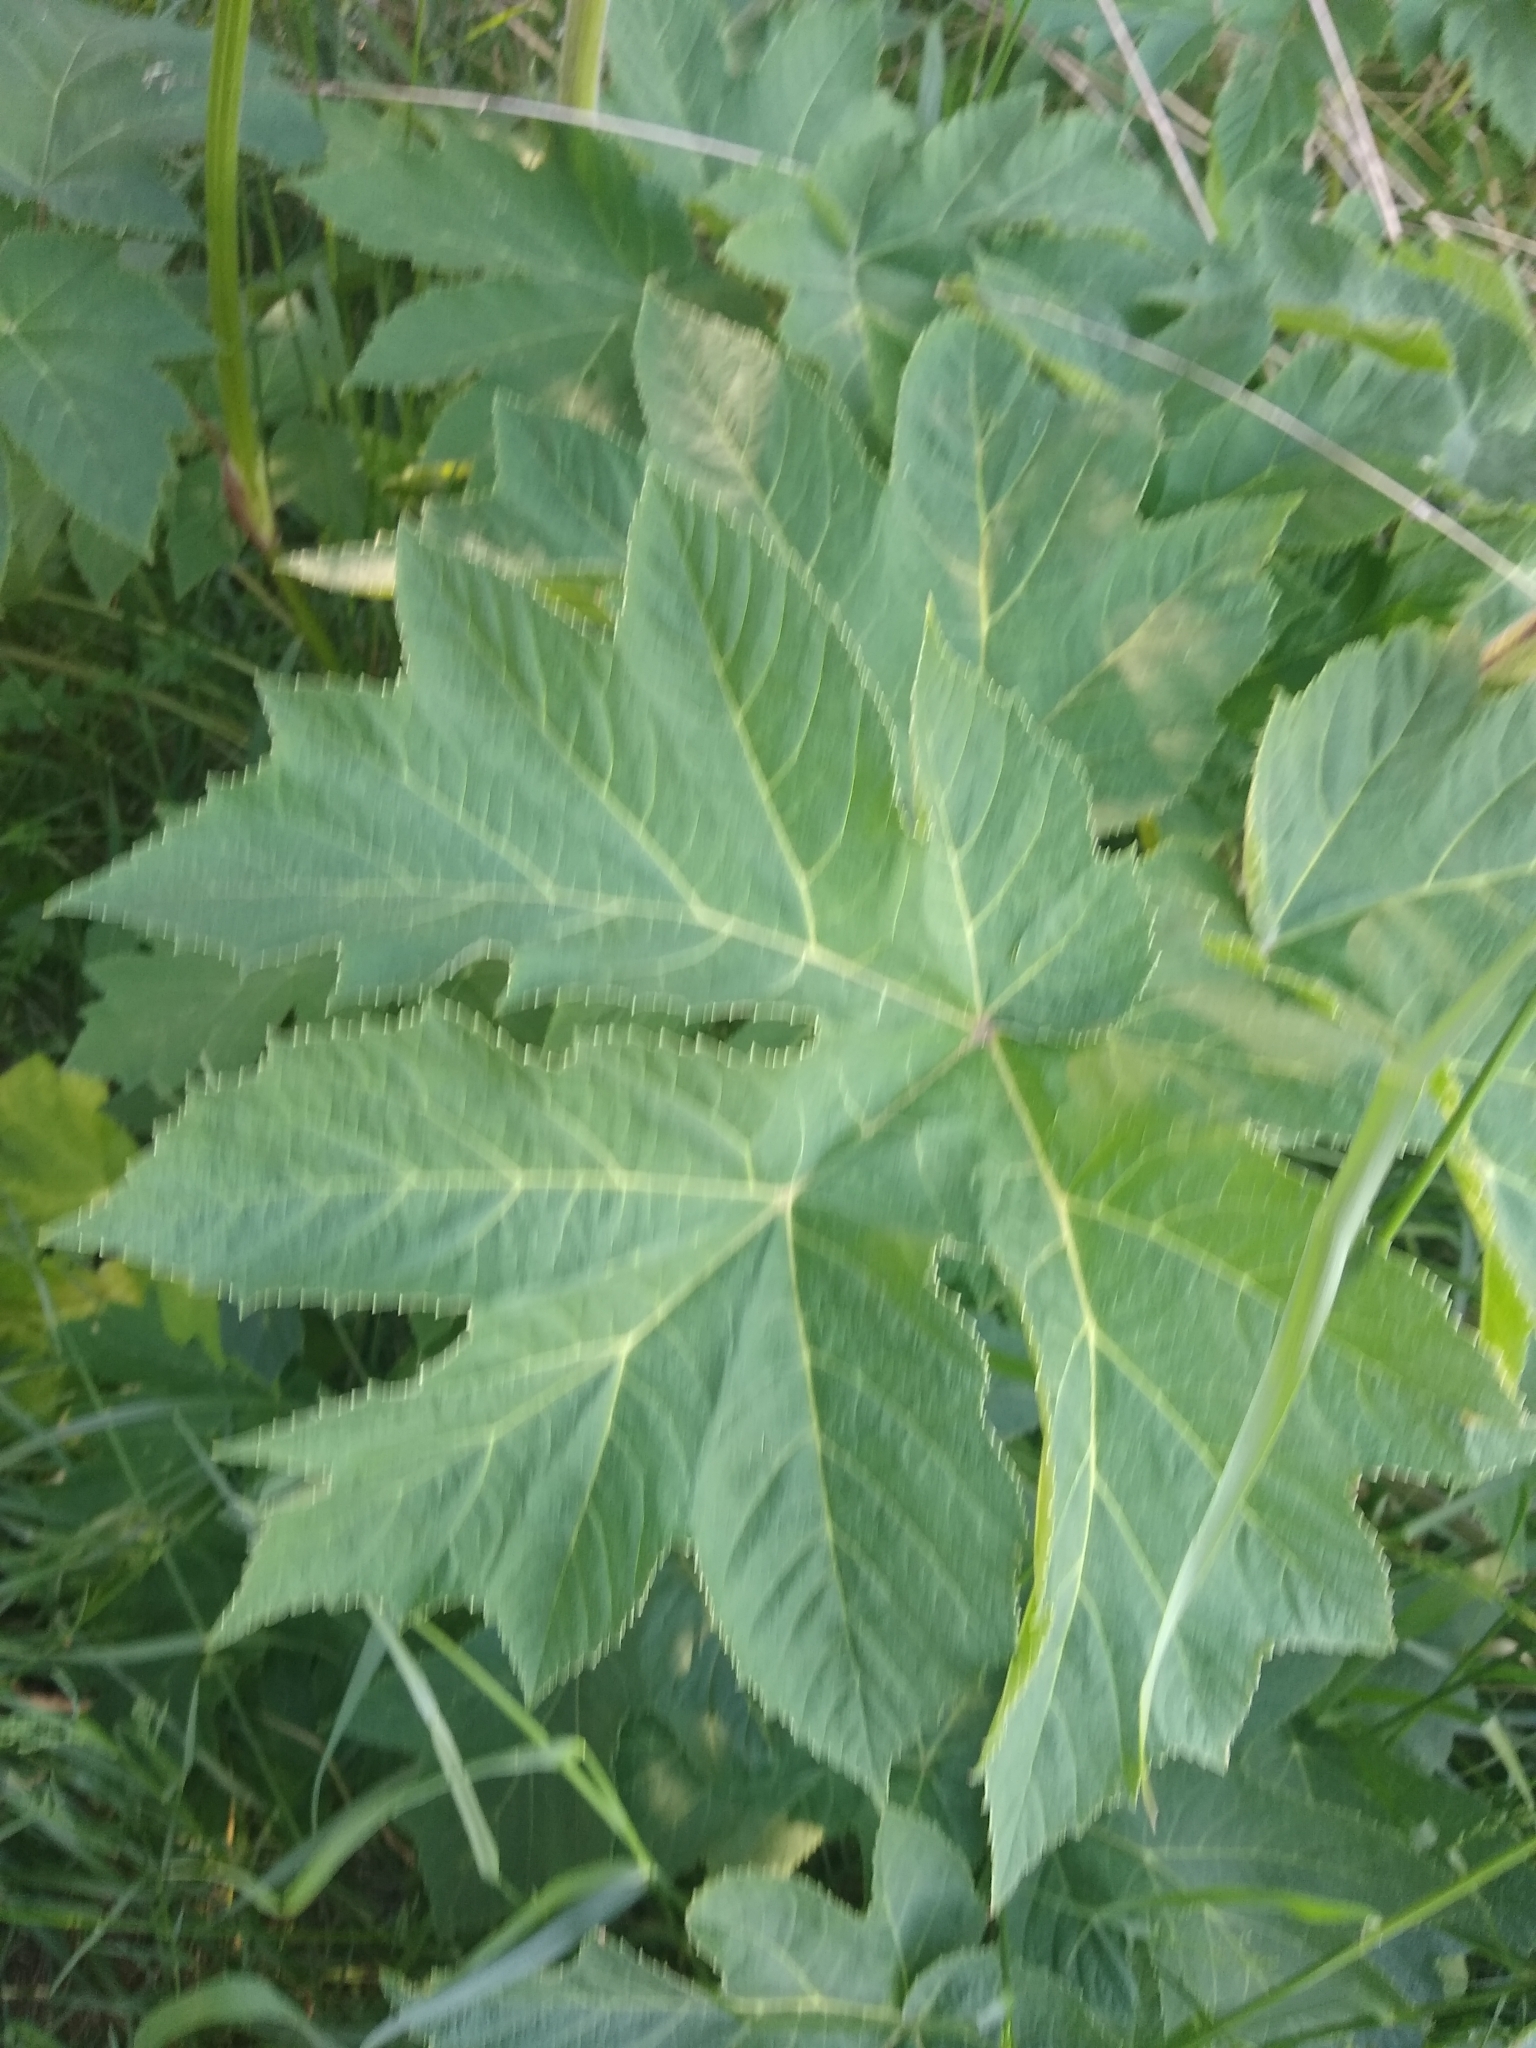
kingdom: Plantae
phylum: Tracheophyta
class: Magnoliopsida
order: Apiales
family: Apiaceae
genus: Heracleum
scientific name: Heracleum maximum
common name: American cow parsnip
